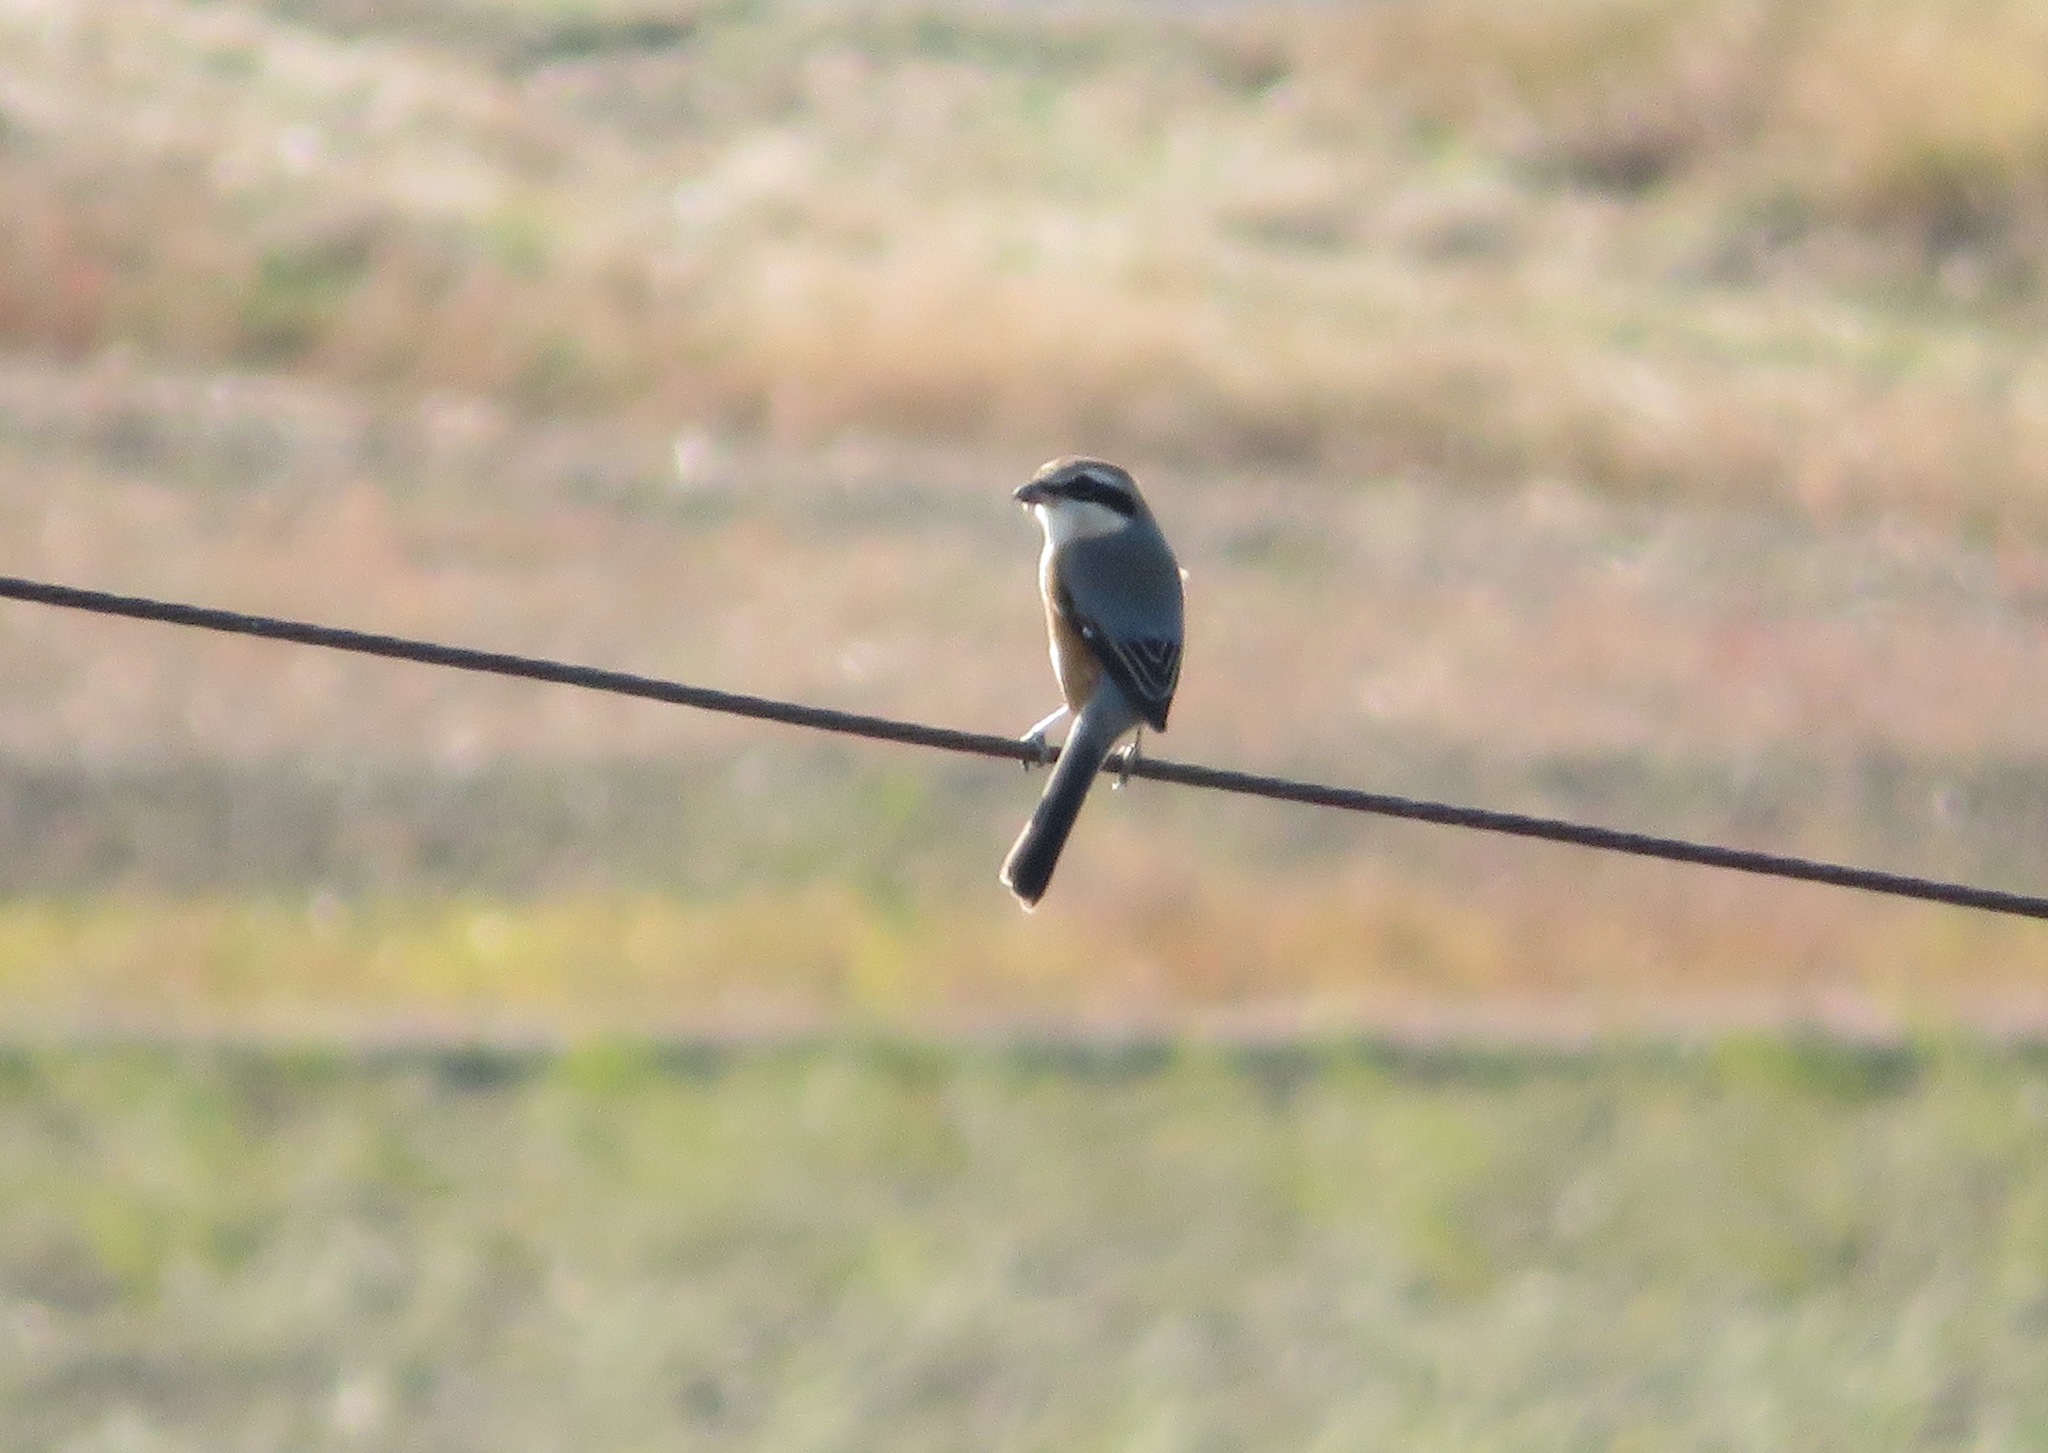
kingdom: Animalia
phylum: Chordata
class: Aves
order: Passeriformes
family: Laniidae
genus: Lanius
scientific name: Lanius bucephalus
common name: Bull-headed shrike
